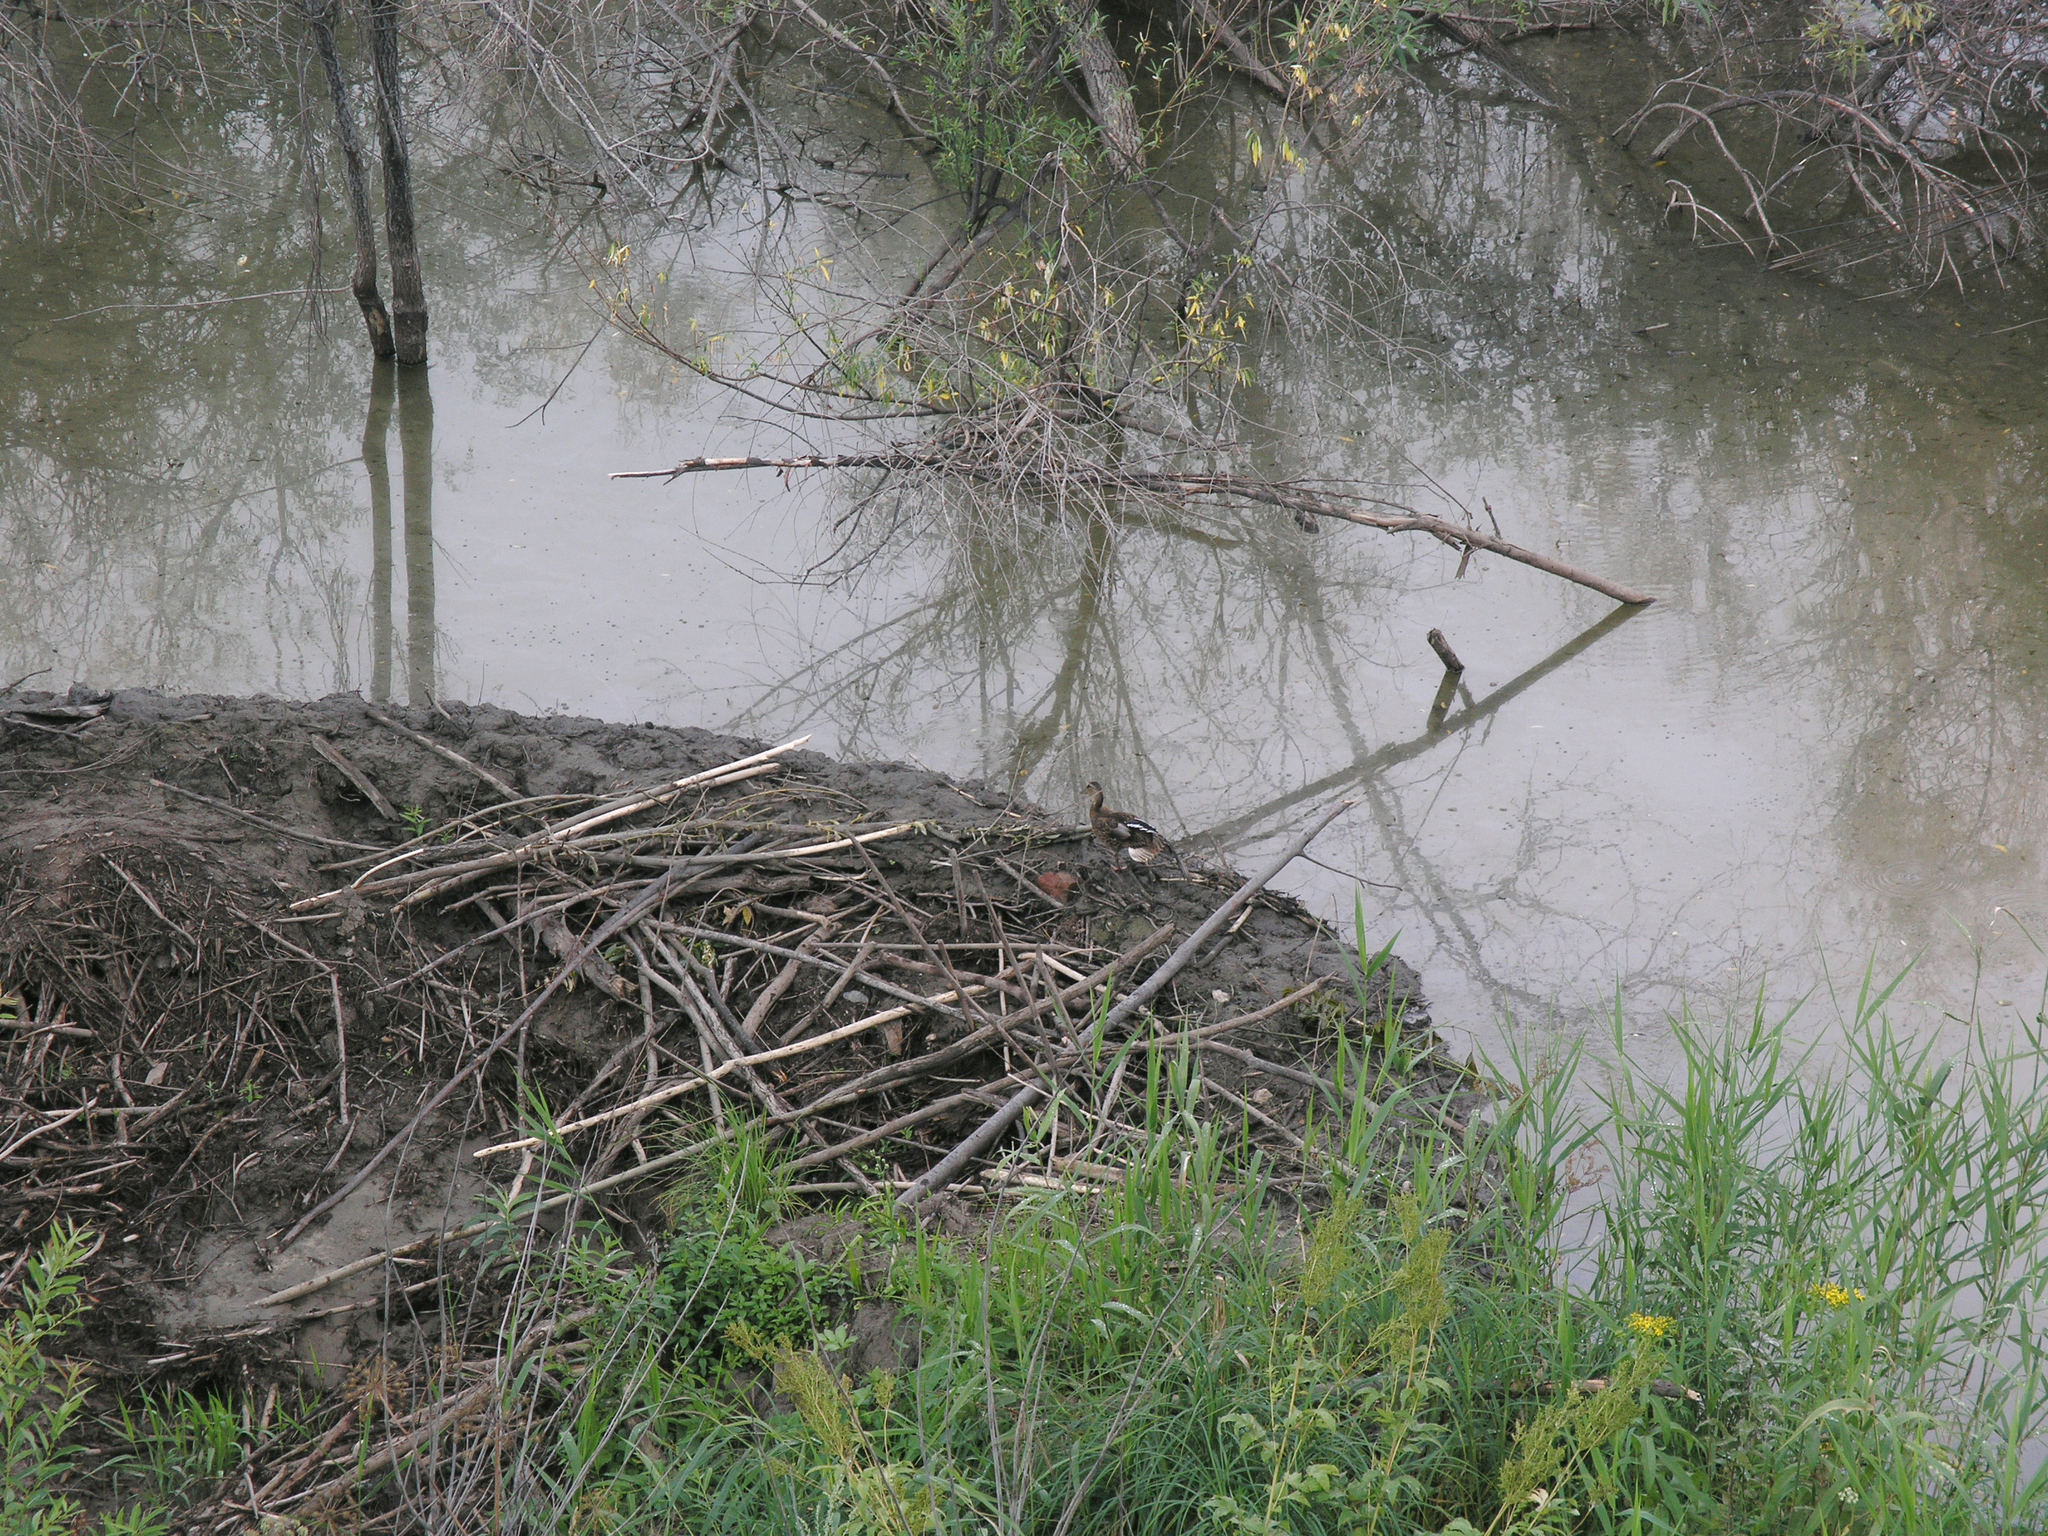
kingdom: Animalia
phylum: Chordata
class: Mammalia
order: Rodentia
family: Castoridae
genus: Castor
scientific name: Castor fiber
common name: Eurasian beaver
